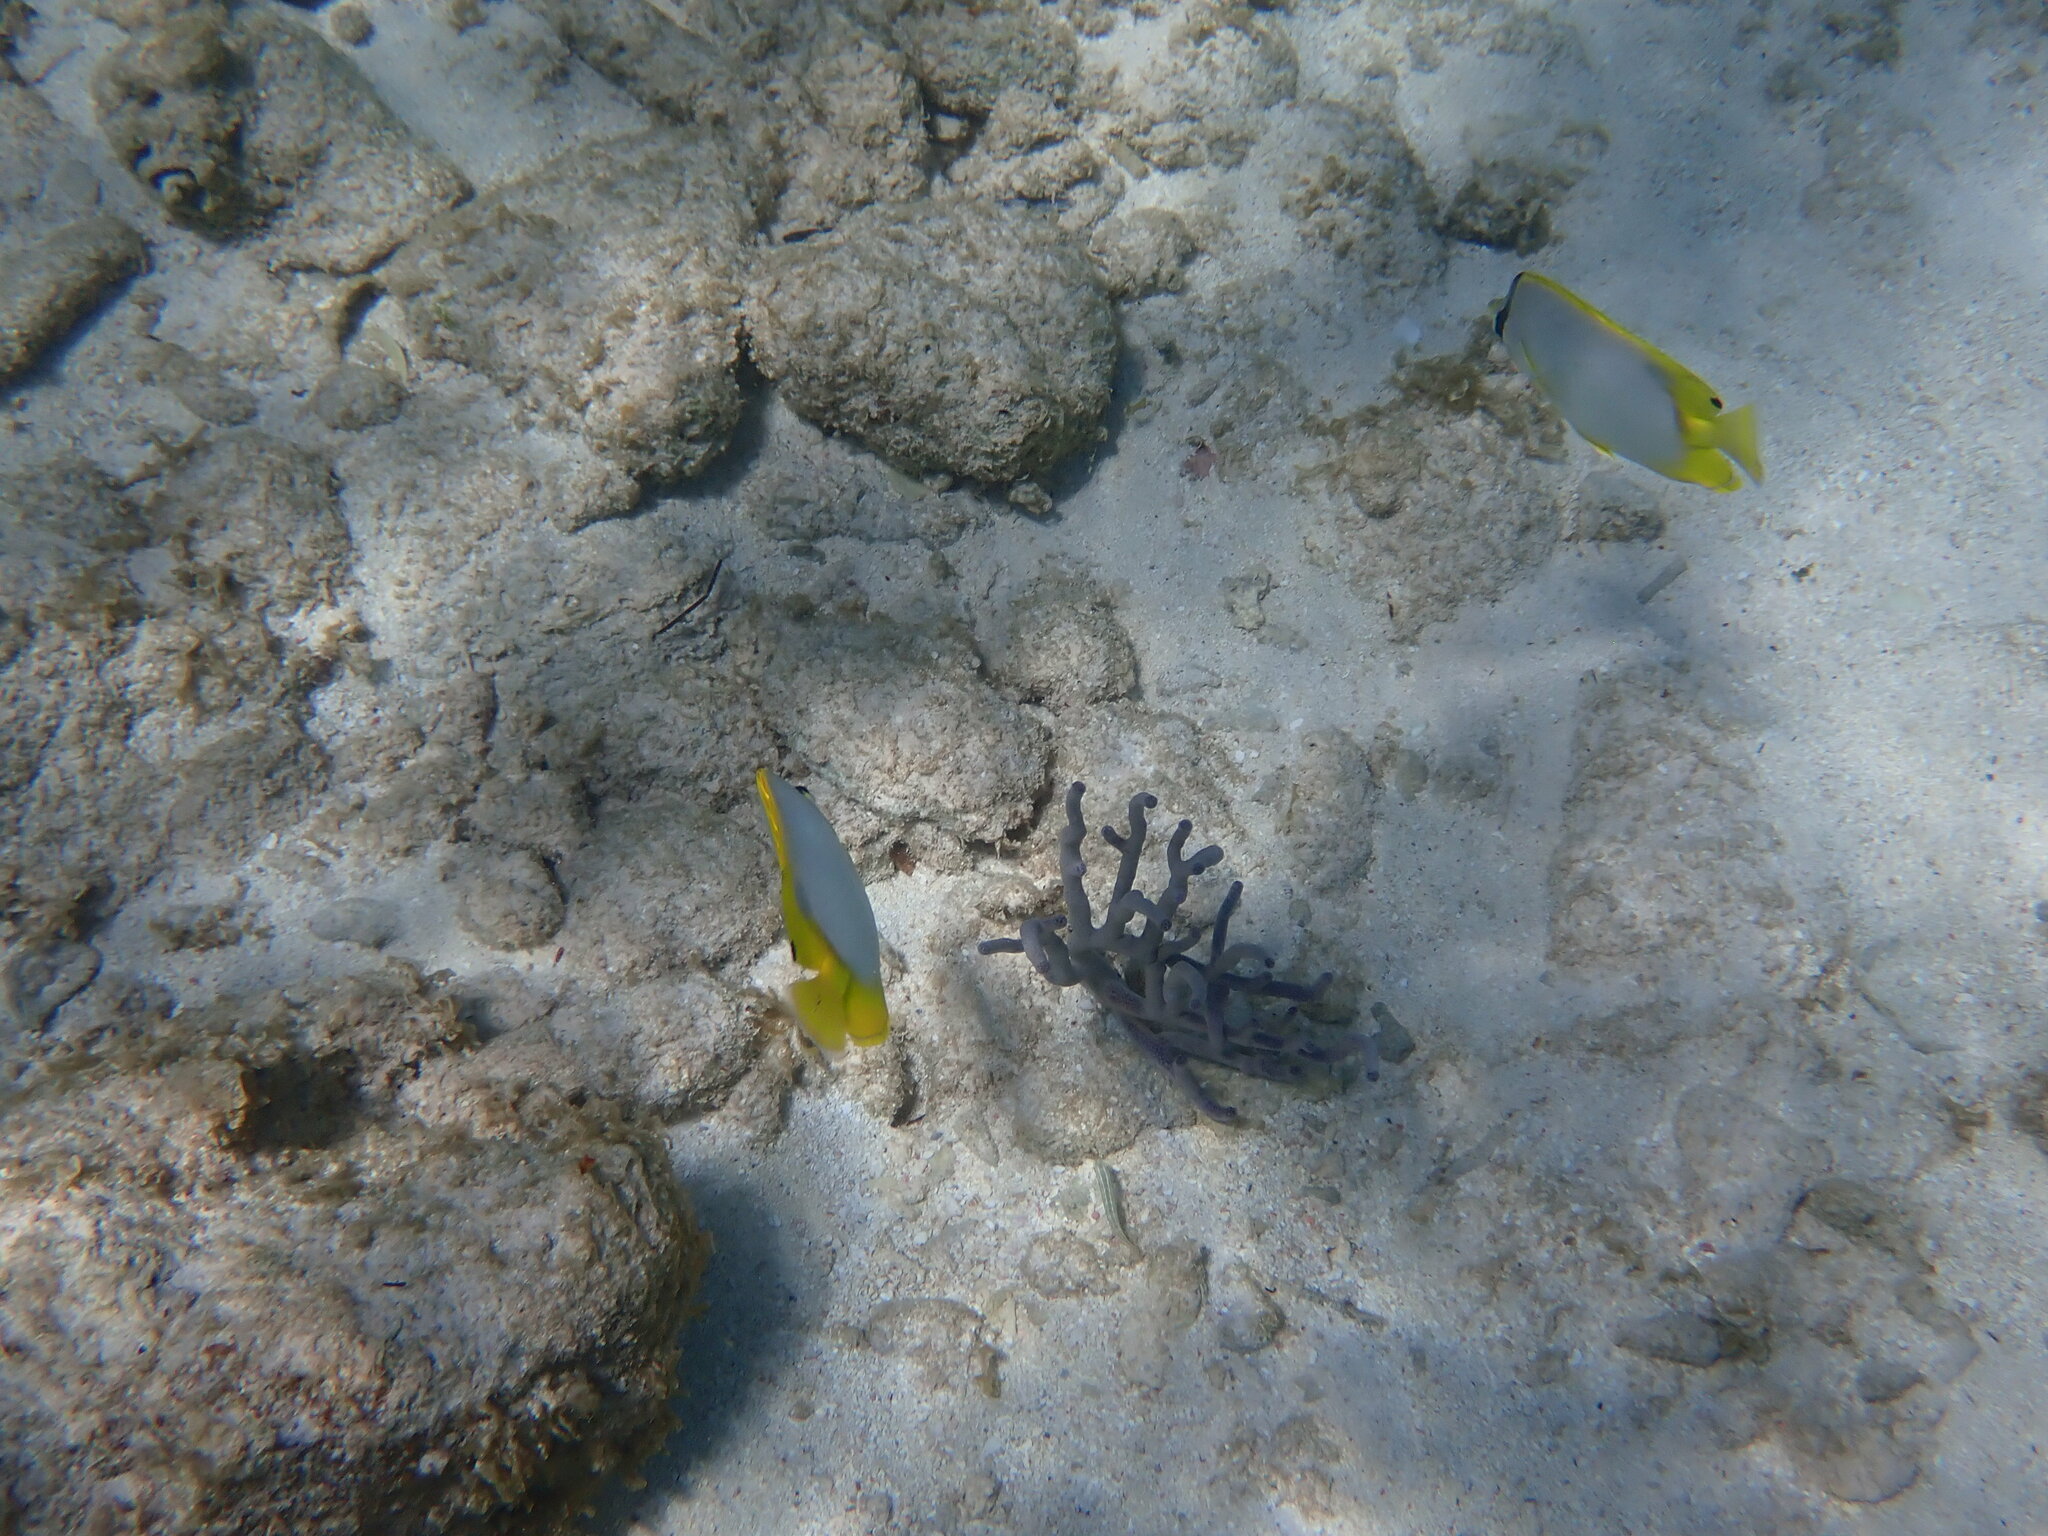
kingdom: Animalia
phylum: Chordata
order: Perciformes
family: Chaetodontidae
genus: Chaetodon
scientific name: Chaetodon ocellatus
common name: Spotfin butterflyfish
